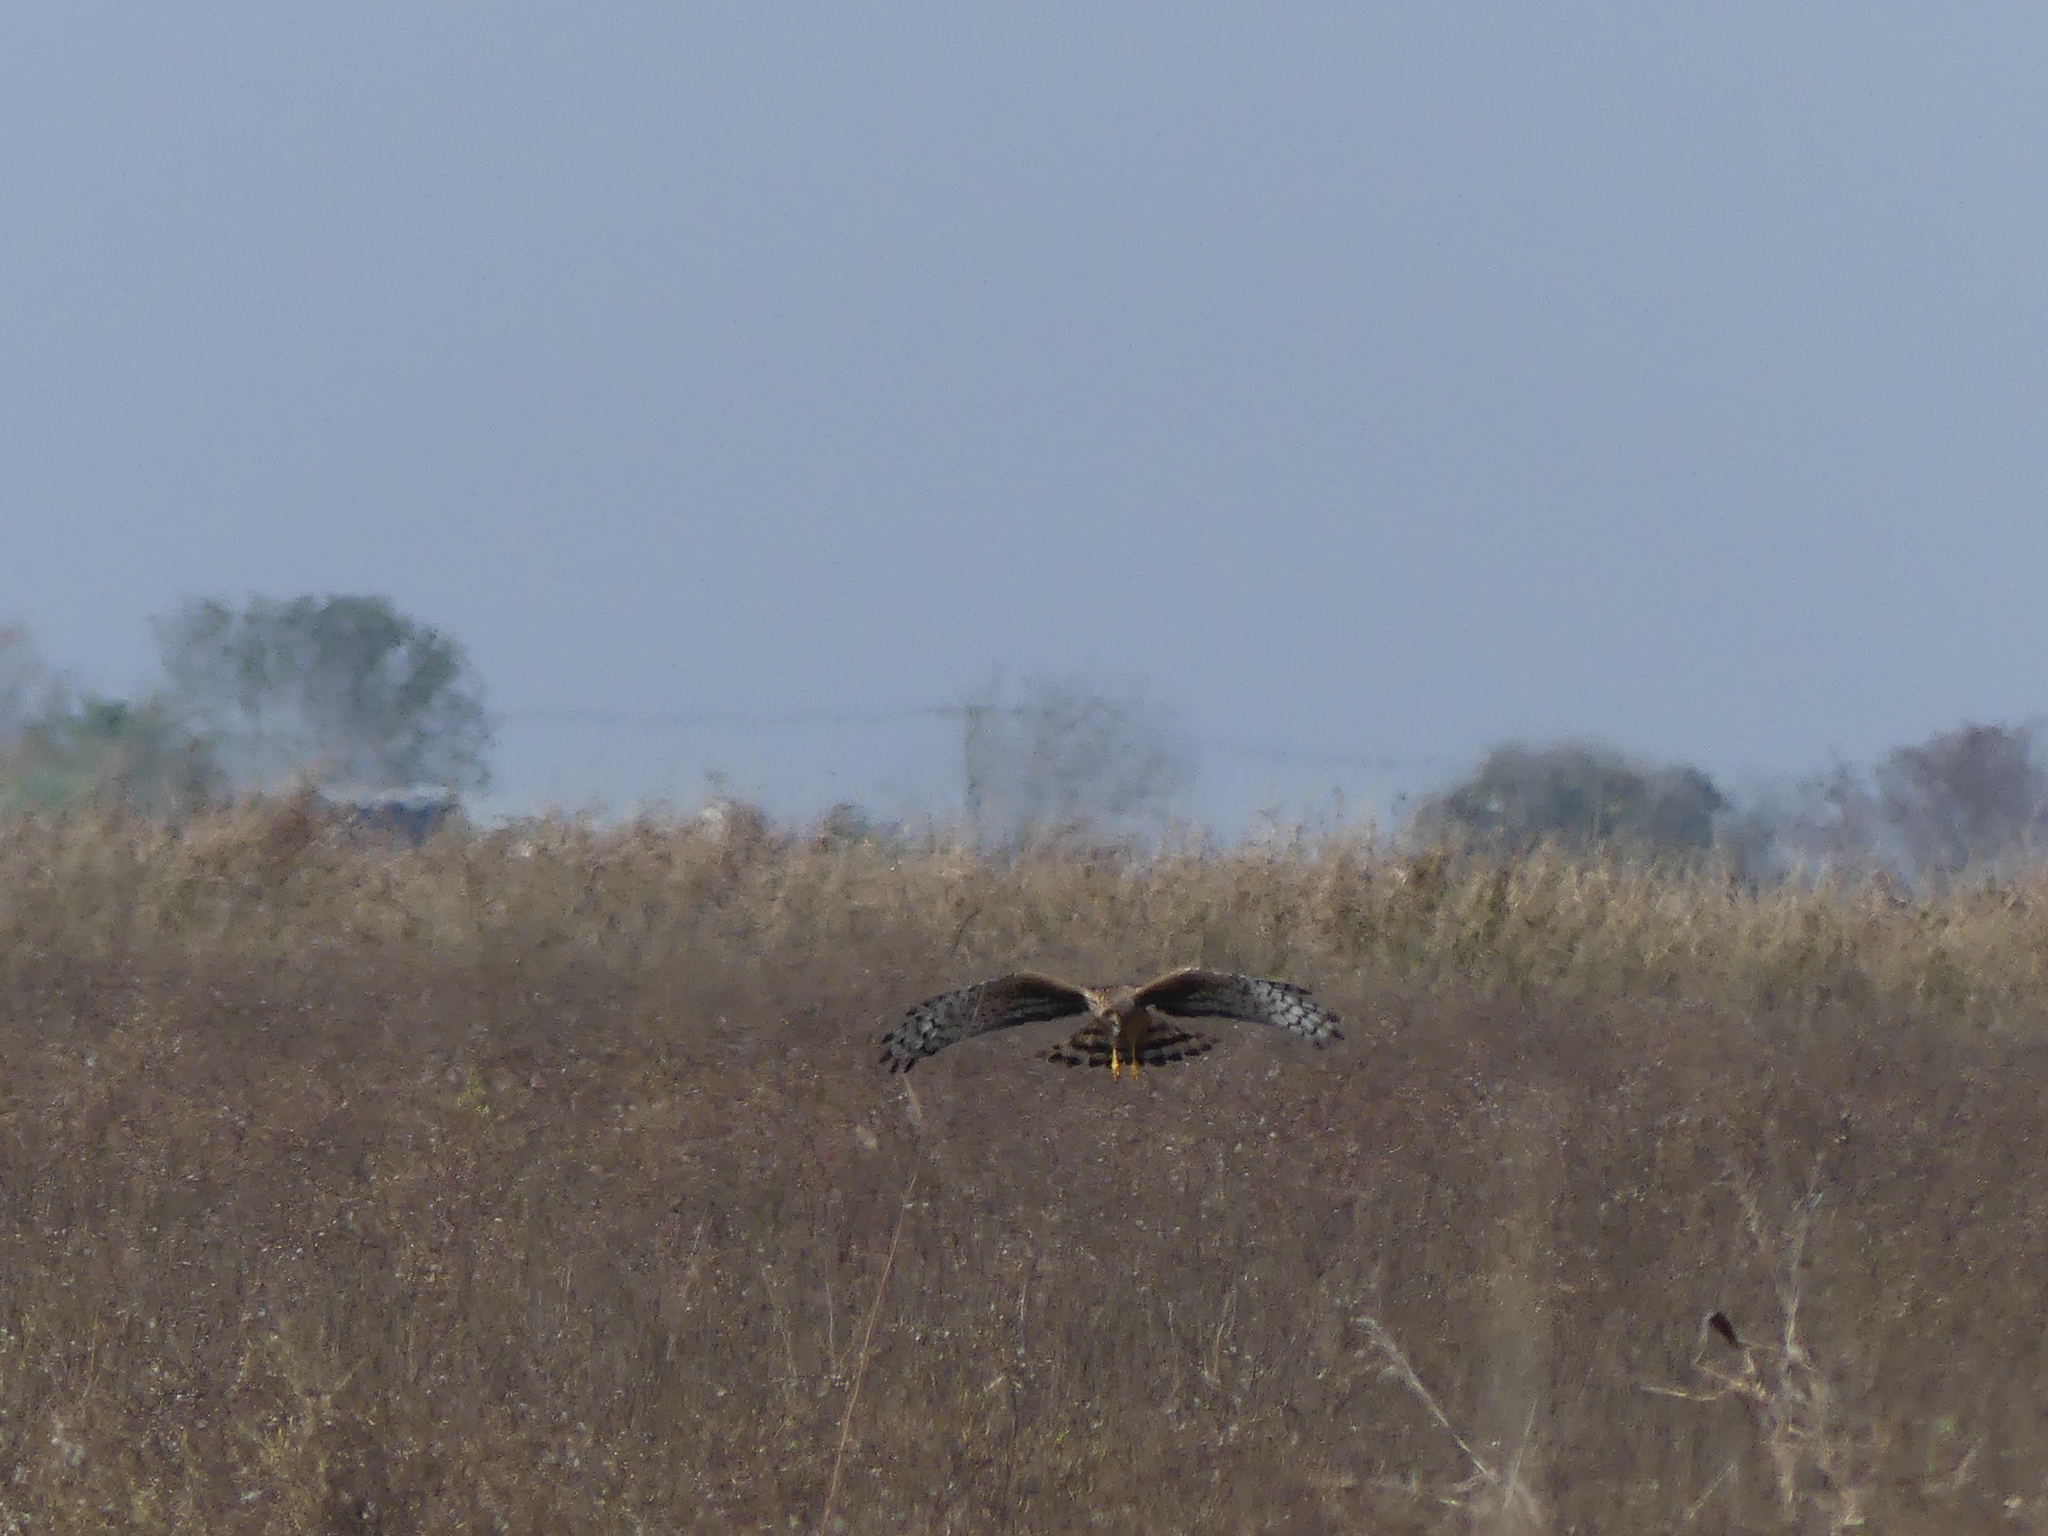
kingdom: Animalia
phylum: Chordata
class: Aves
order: Accipitriformes
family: Accipitridae
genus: Circus
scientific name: Circus cyaneus
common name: Hen harrier
